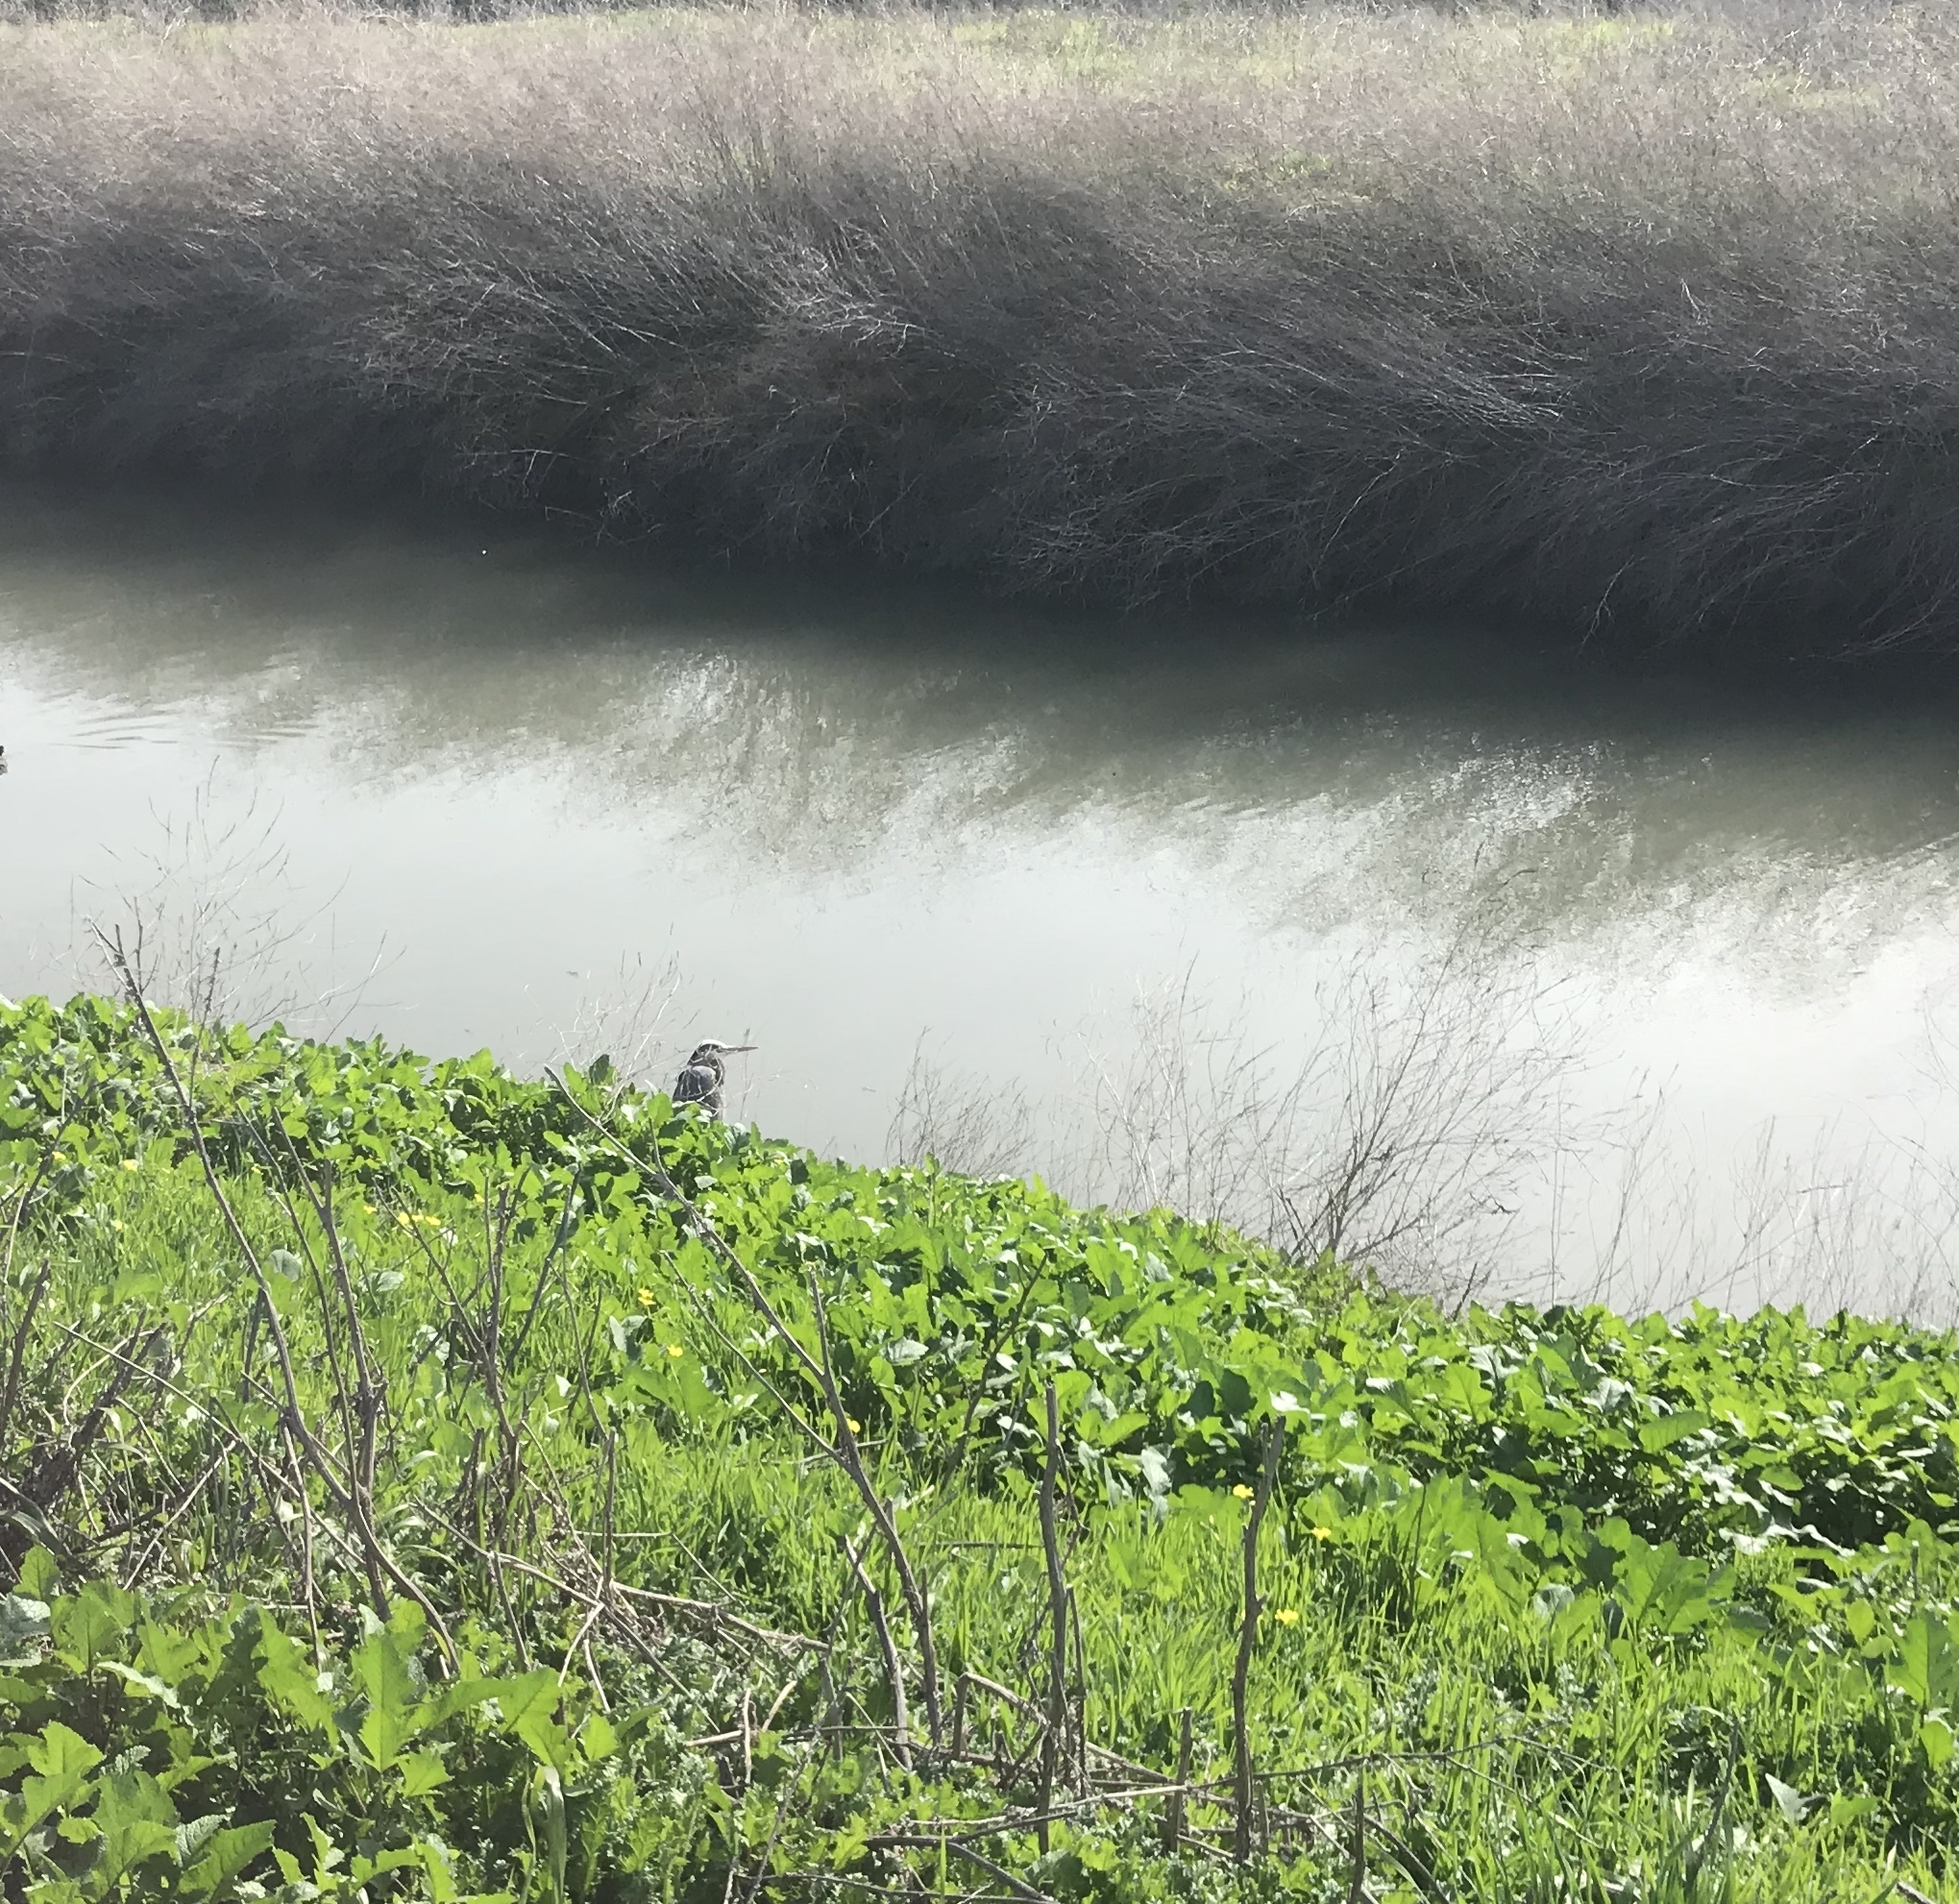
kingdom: Animalia
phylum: Chordata
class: Aves
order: Pelecaniformes
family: Ardeidae
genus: Ardea
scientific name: Ardea herodias
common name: Great blue heron
